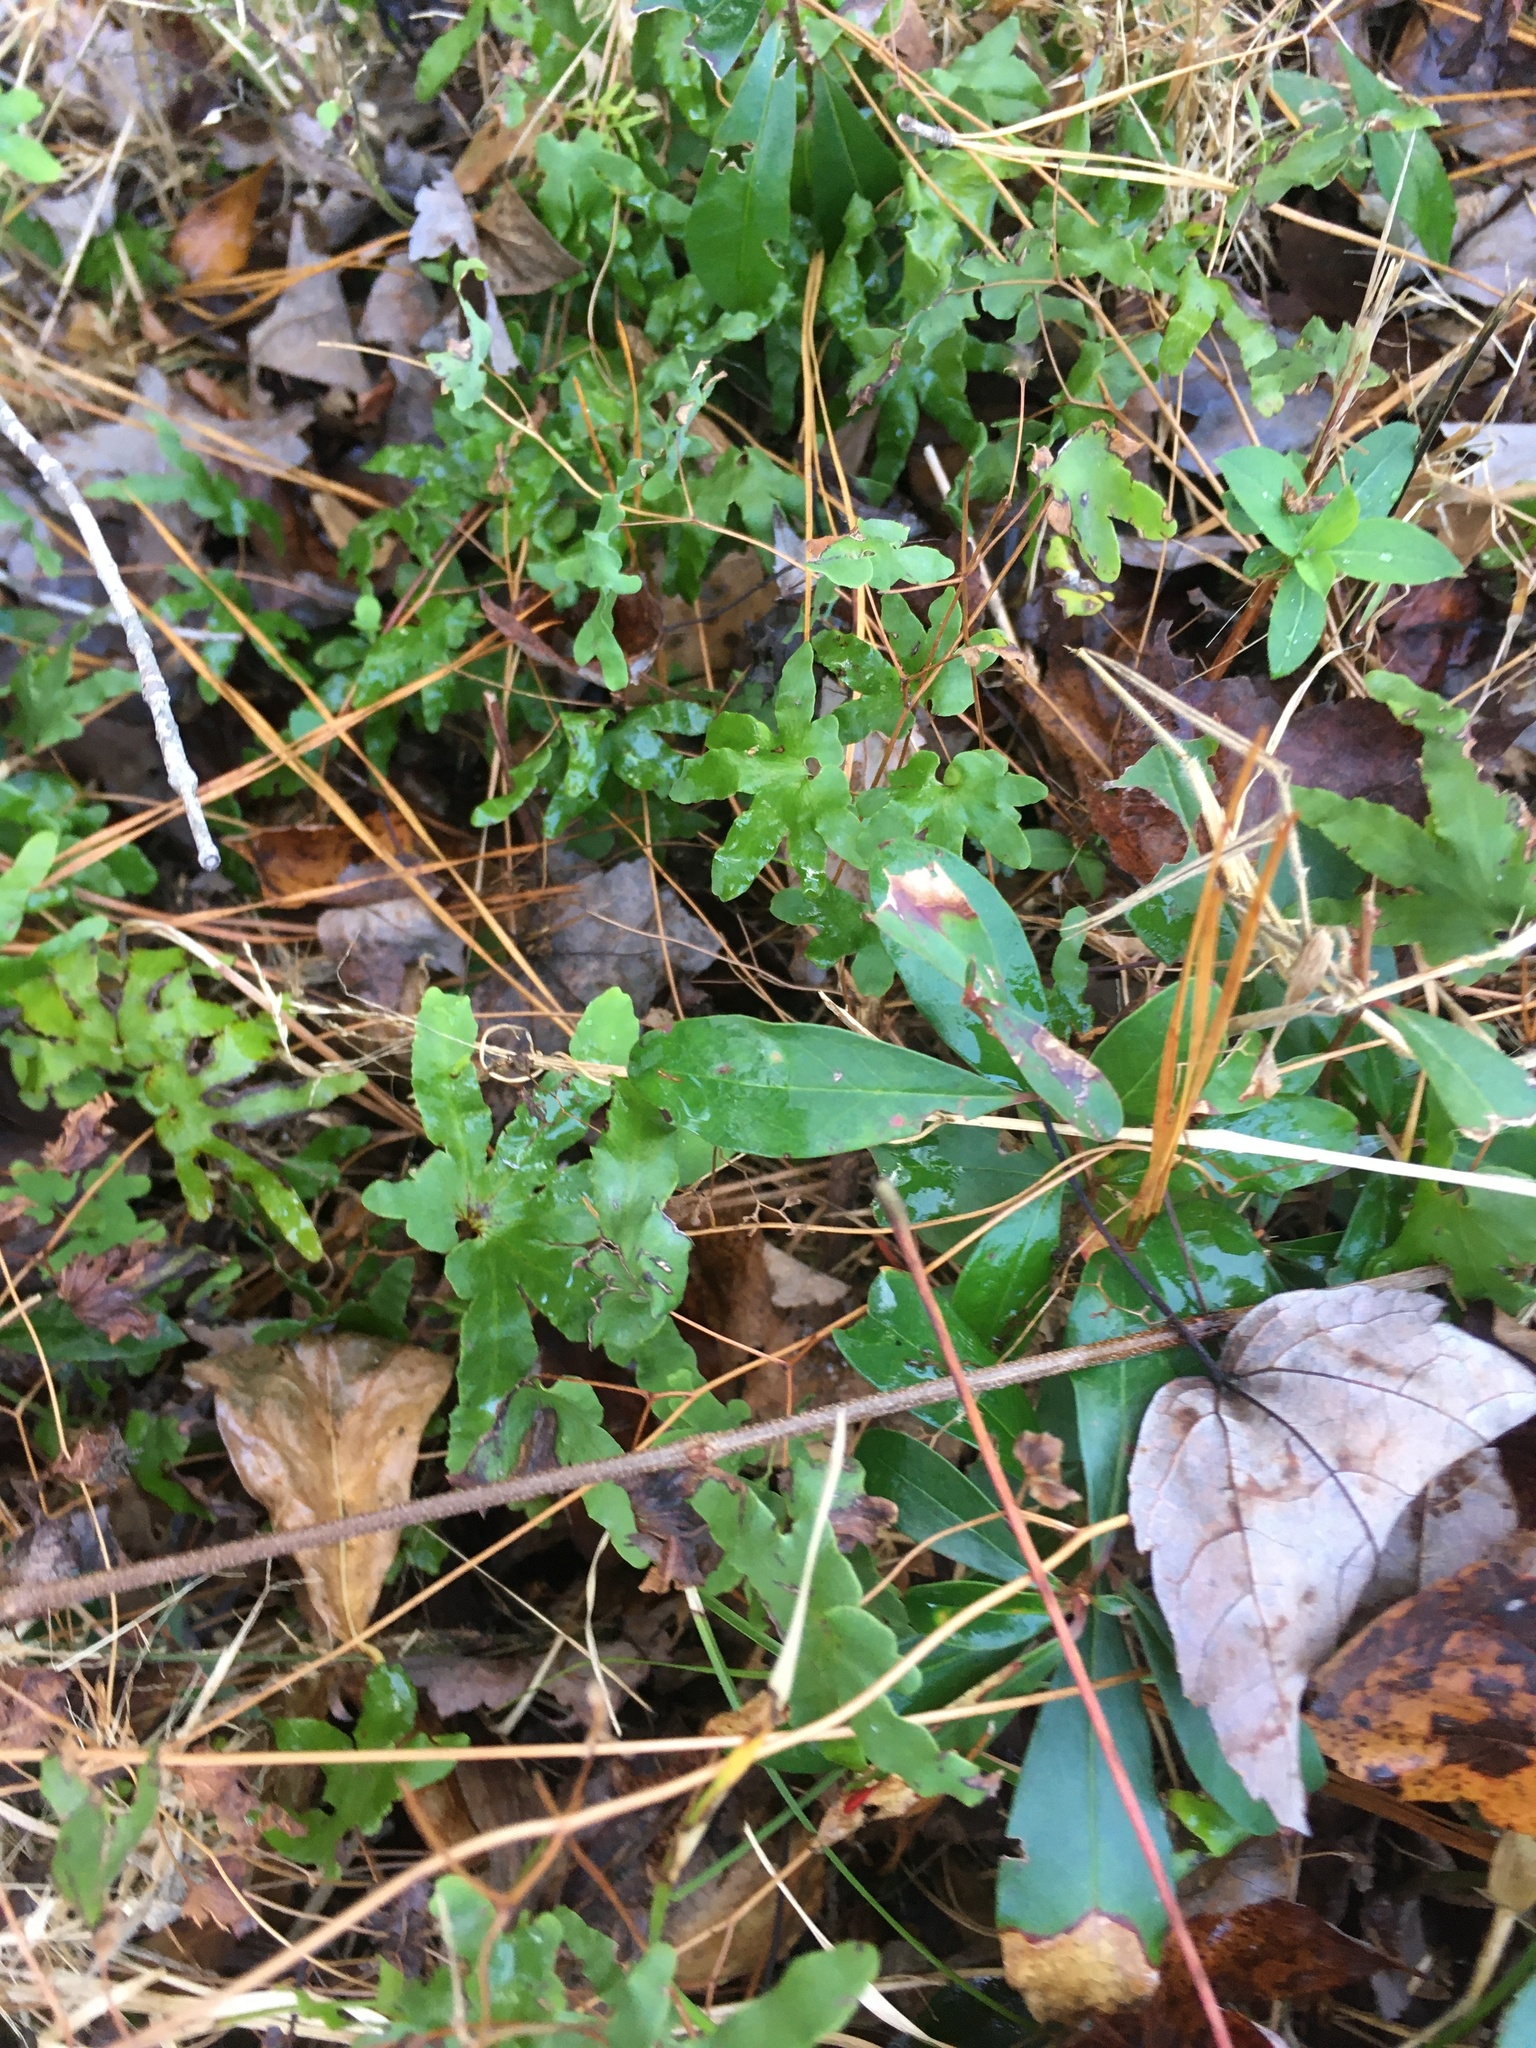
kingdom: Plantae
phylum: Tracheophyta
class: Polypodiopsida
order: Schizaeales
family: Lygodiaceae
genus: Lygodium
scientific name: Lygodium palmatum
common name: American climbing fern
